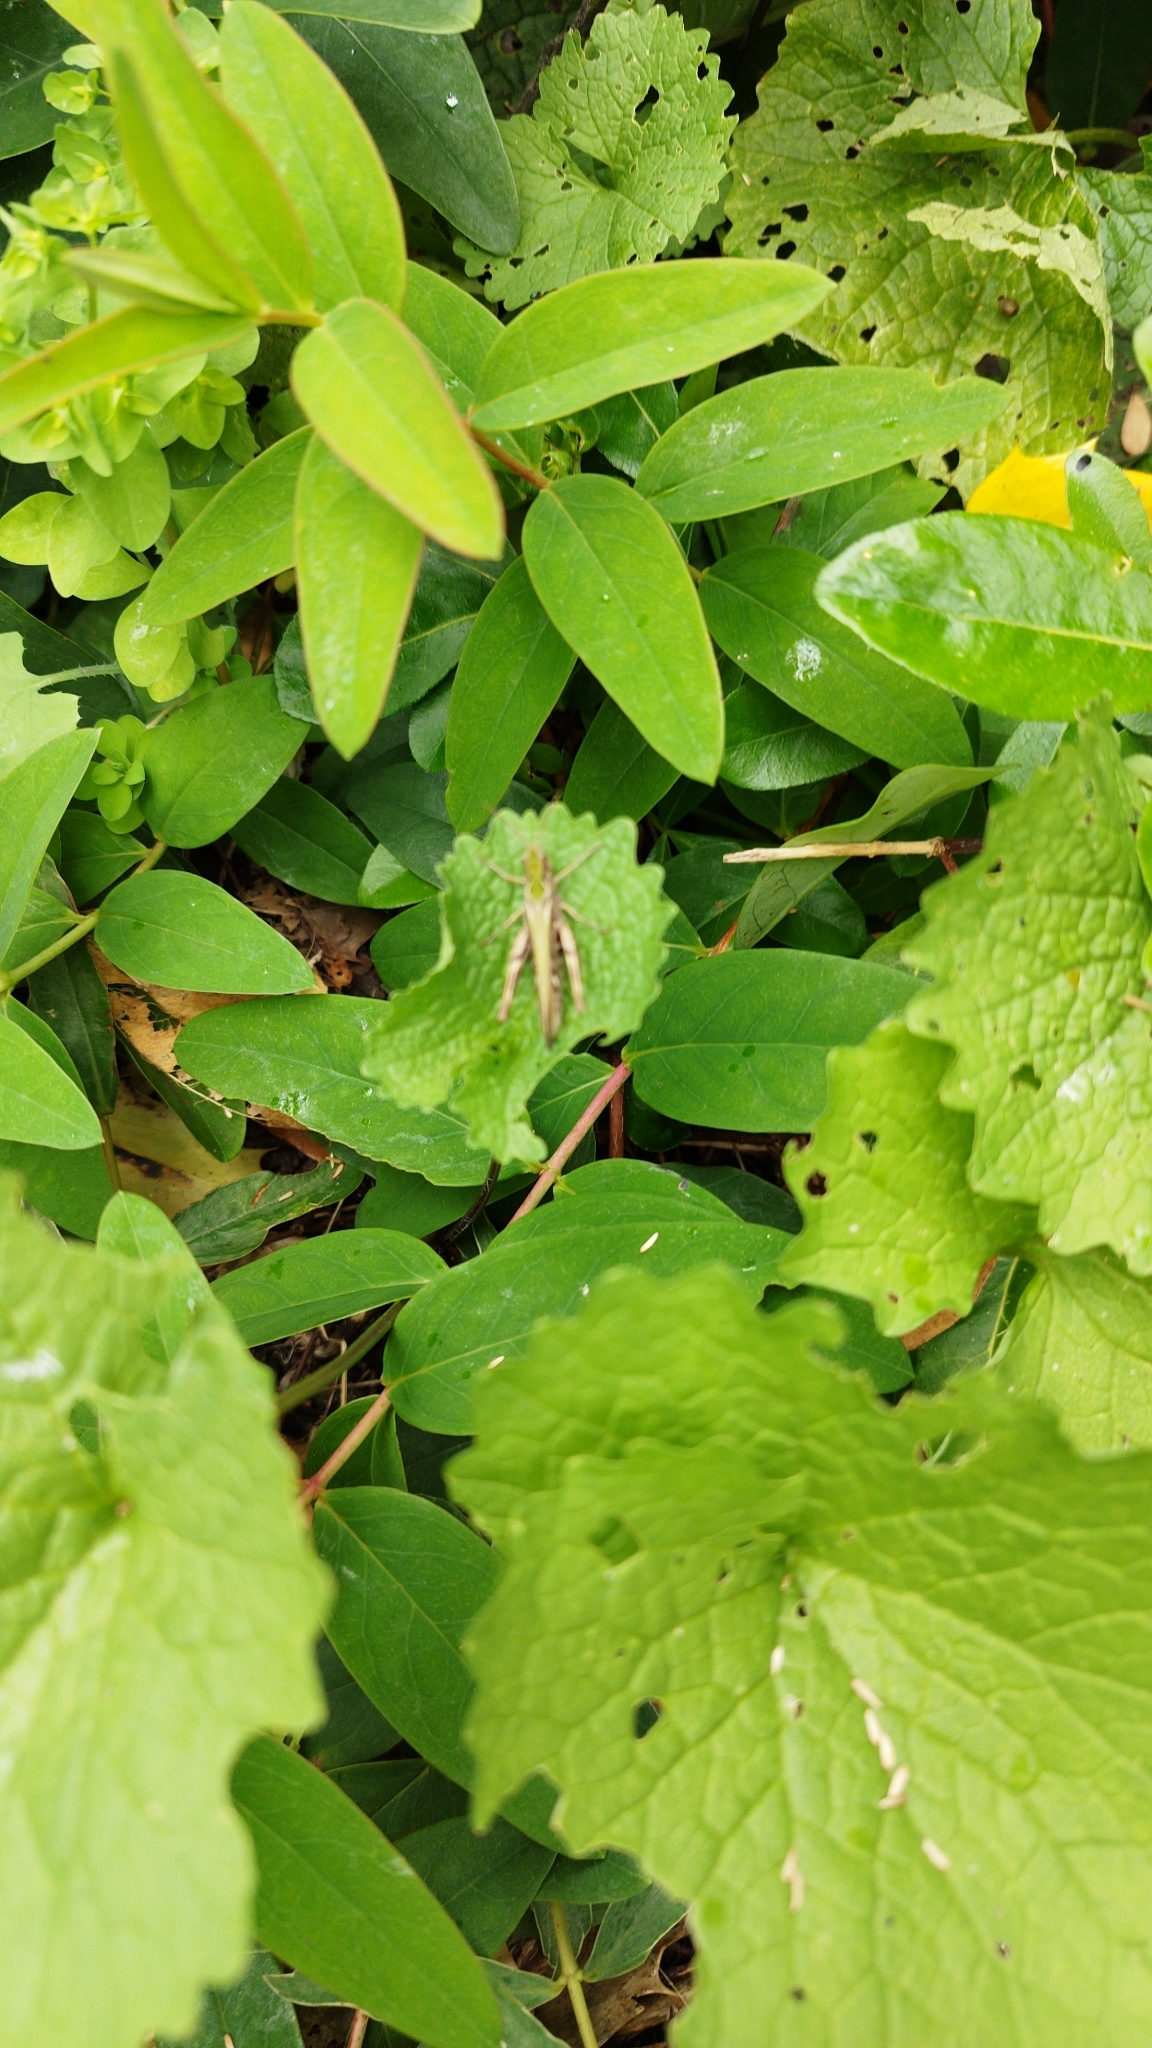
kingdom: Animalia
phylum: Arthropoda
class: Insecta
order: Orthoptera
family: Acrididae
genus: Chorthippus
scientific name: Chorthippus brunneus
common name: Field grasshopper
